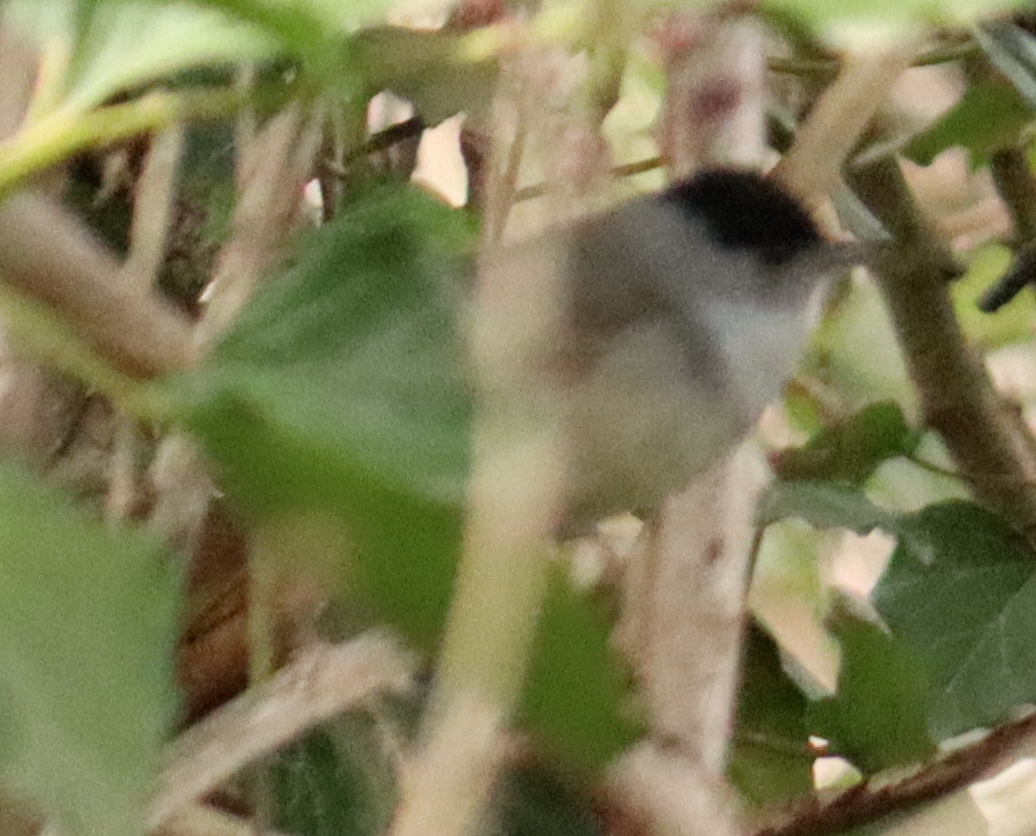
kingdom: Animalia
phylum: Chordata
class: Aves
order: Passeriformes
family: Sylviidae
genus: Sylvia
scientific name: Sylvia atricapilla
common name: Eurasian blackcap
